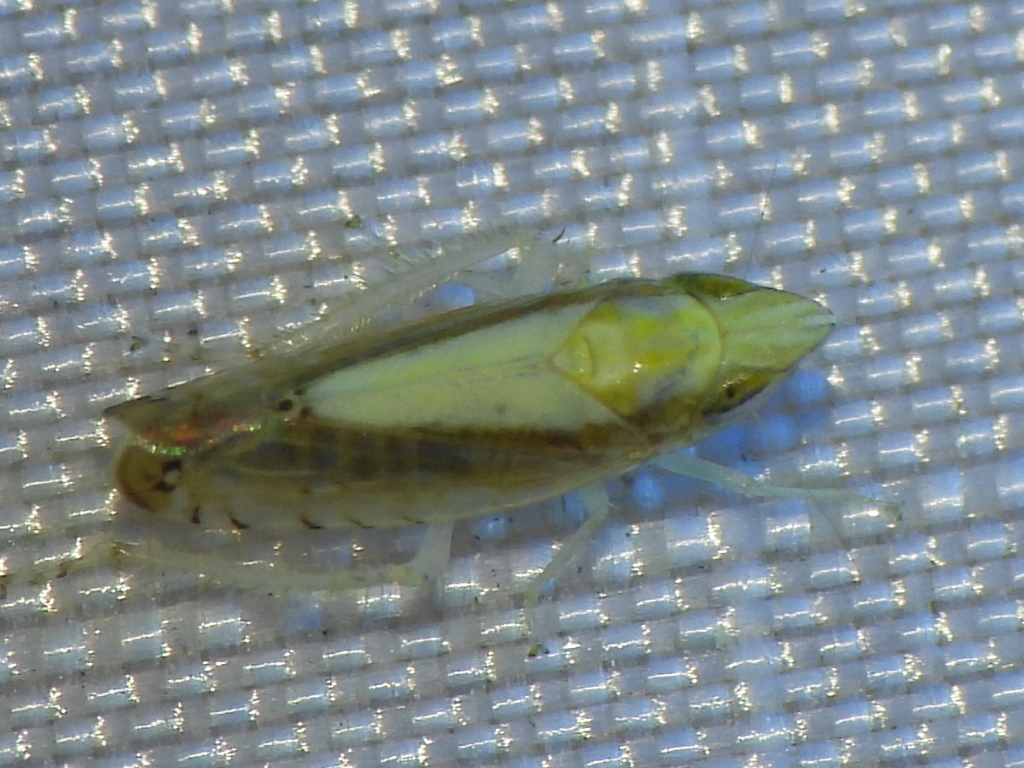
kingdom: Animalia
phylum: Arthropoda
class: Insecta
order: Hemiptera
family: Cicadellidae
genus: Scaphytopius
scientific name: Scaphytopius elegans
